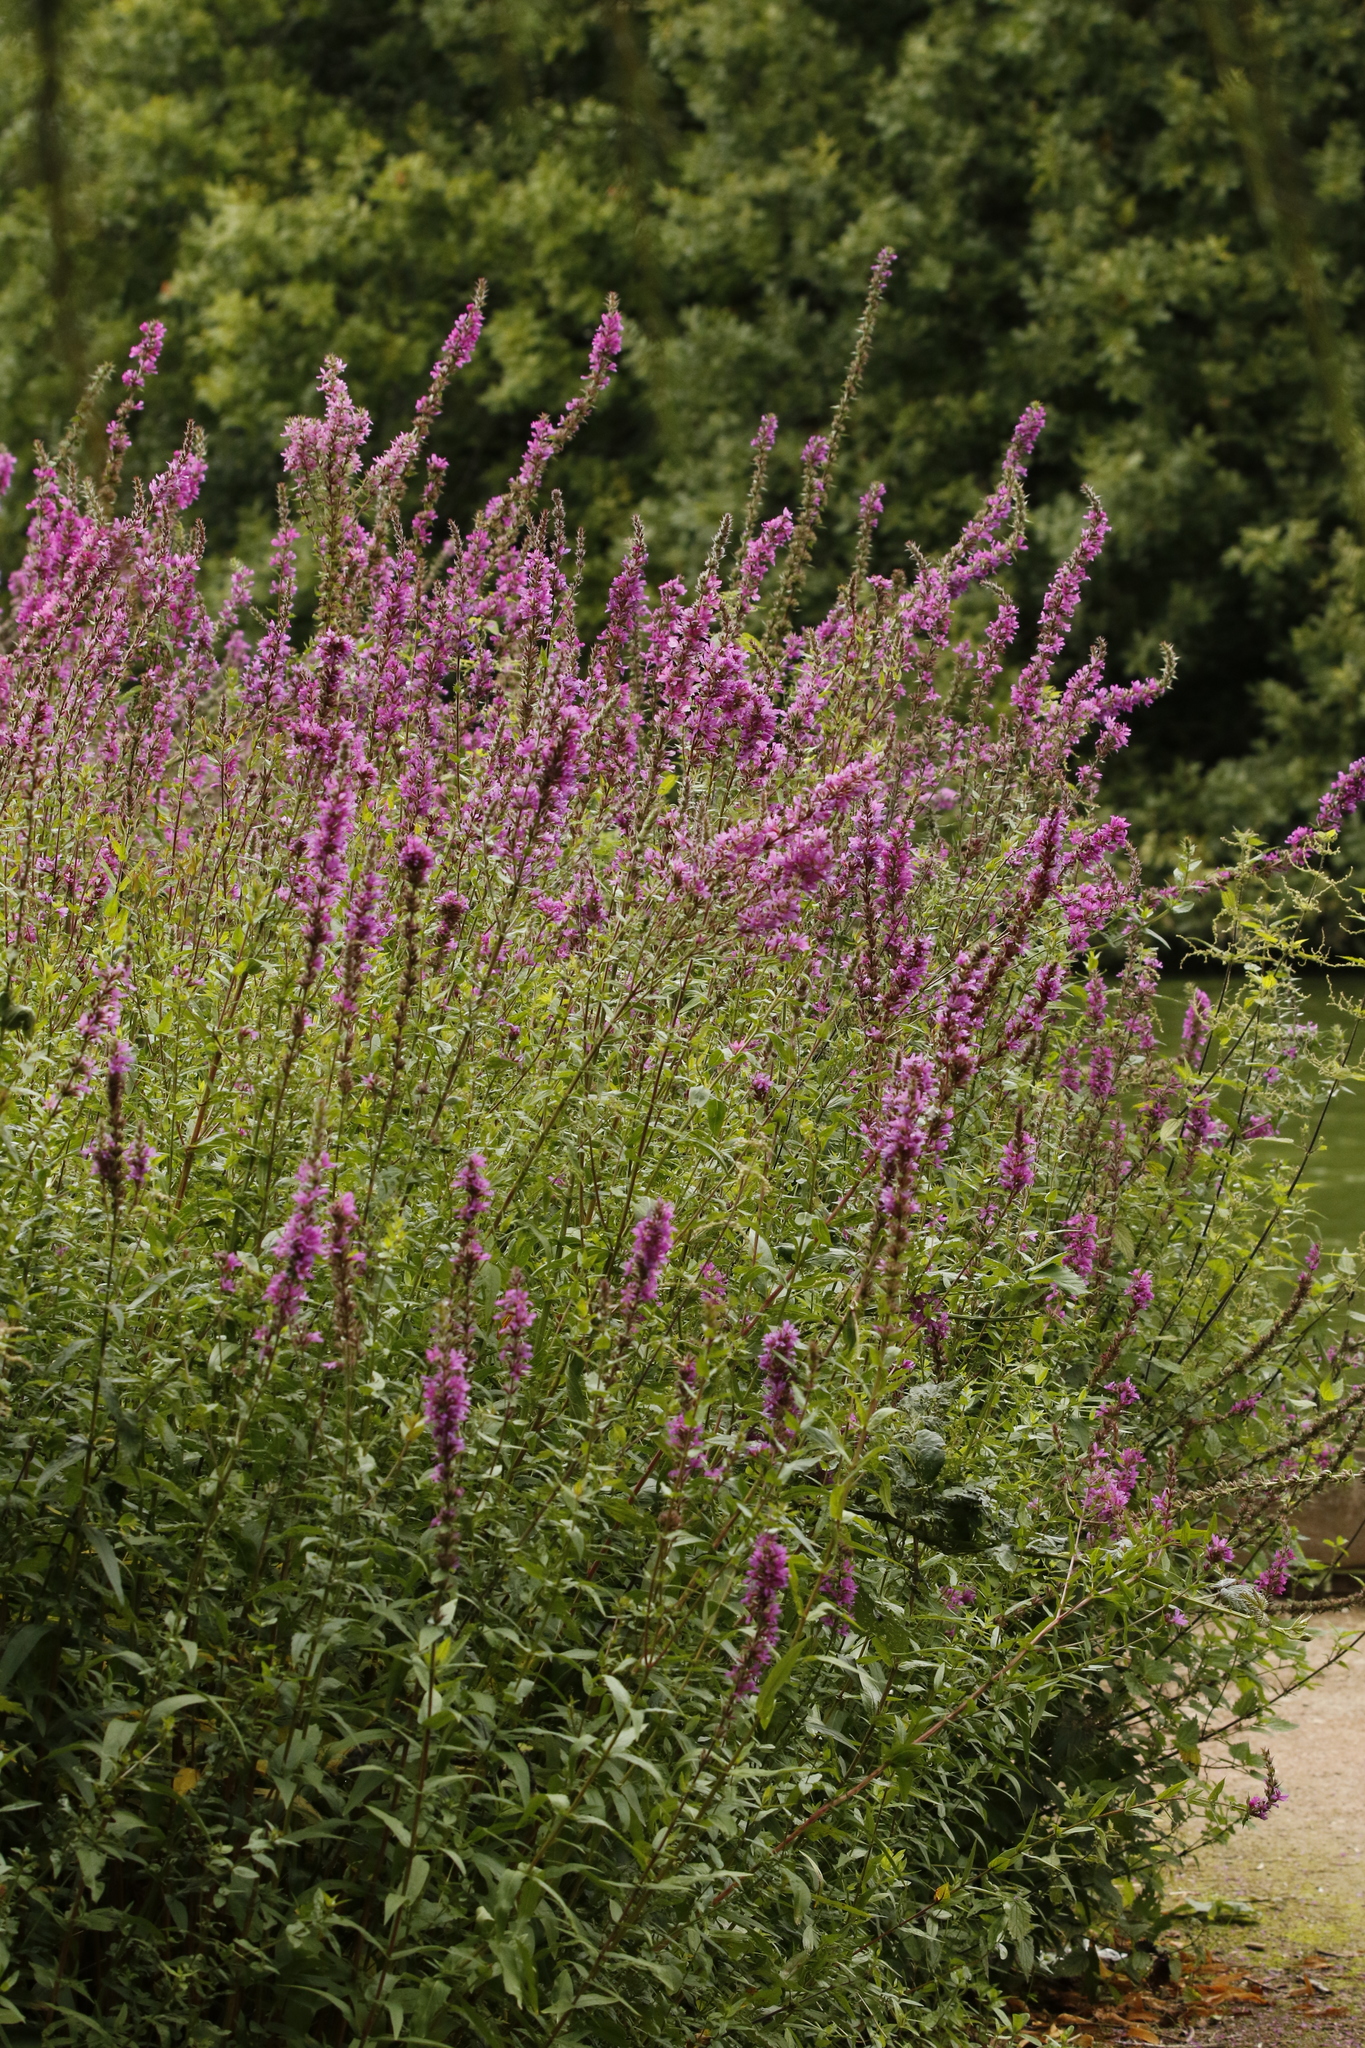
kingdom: Plantae
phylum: Tracheophyta
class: Magnoliopsida
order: Myrtales
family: Lythraceae
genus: Lythrum
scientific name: Lythrum salicaria
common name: Purple loosestrife
